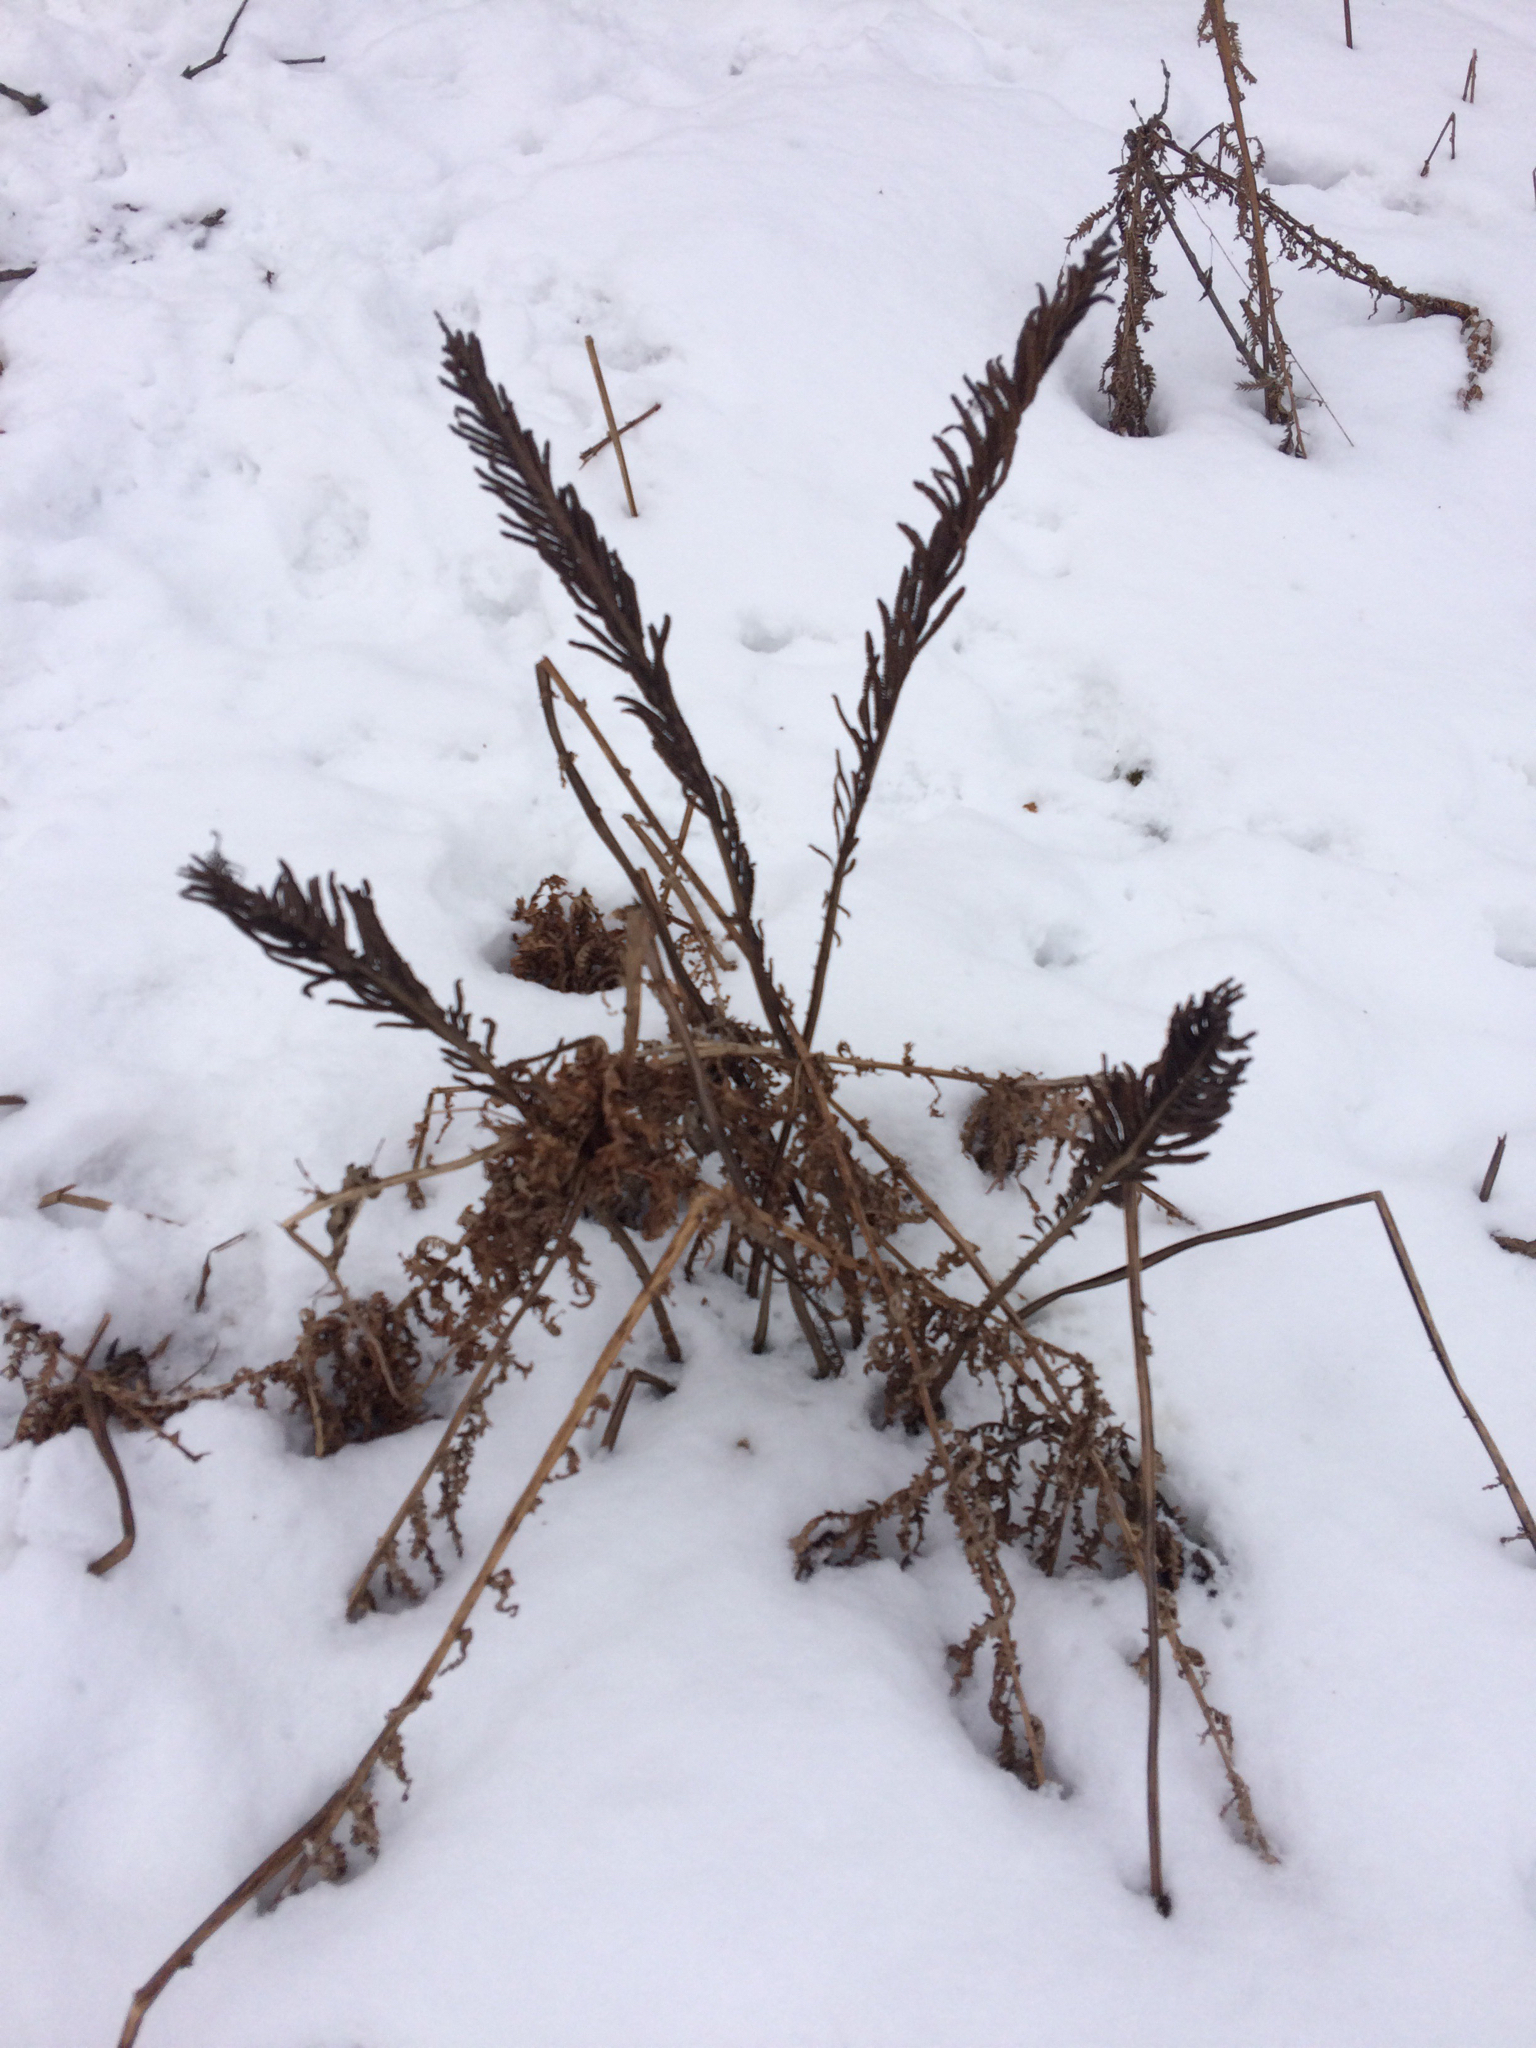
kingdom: Plantae
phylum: Tracheophyta
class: Polypodiopsida
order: Polypodiales
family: Onocleaceae
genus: Matteuccia
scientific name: Matteuccia struthiopteris
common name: Ostrich fern
